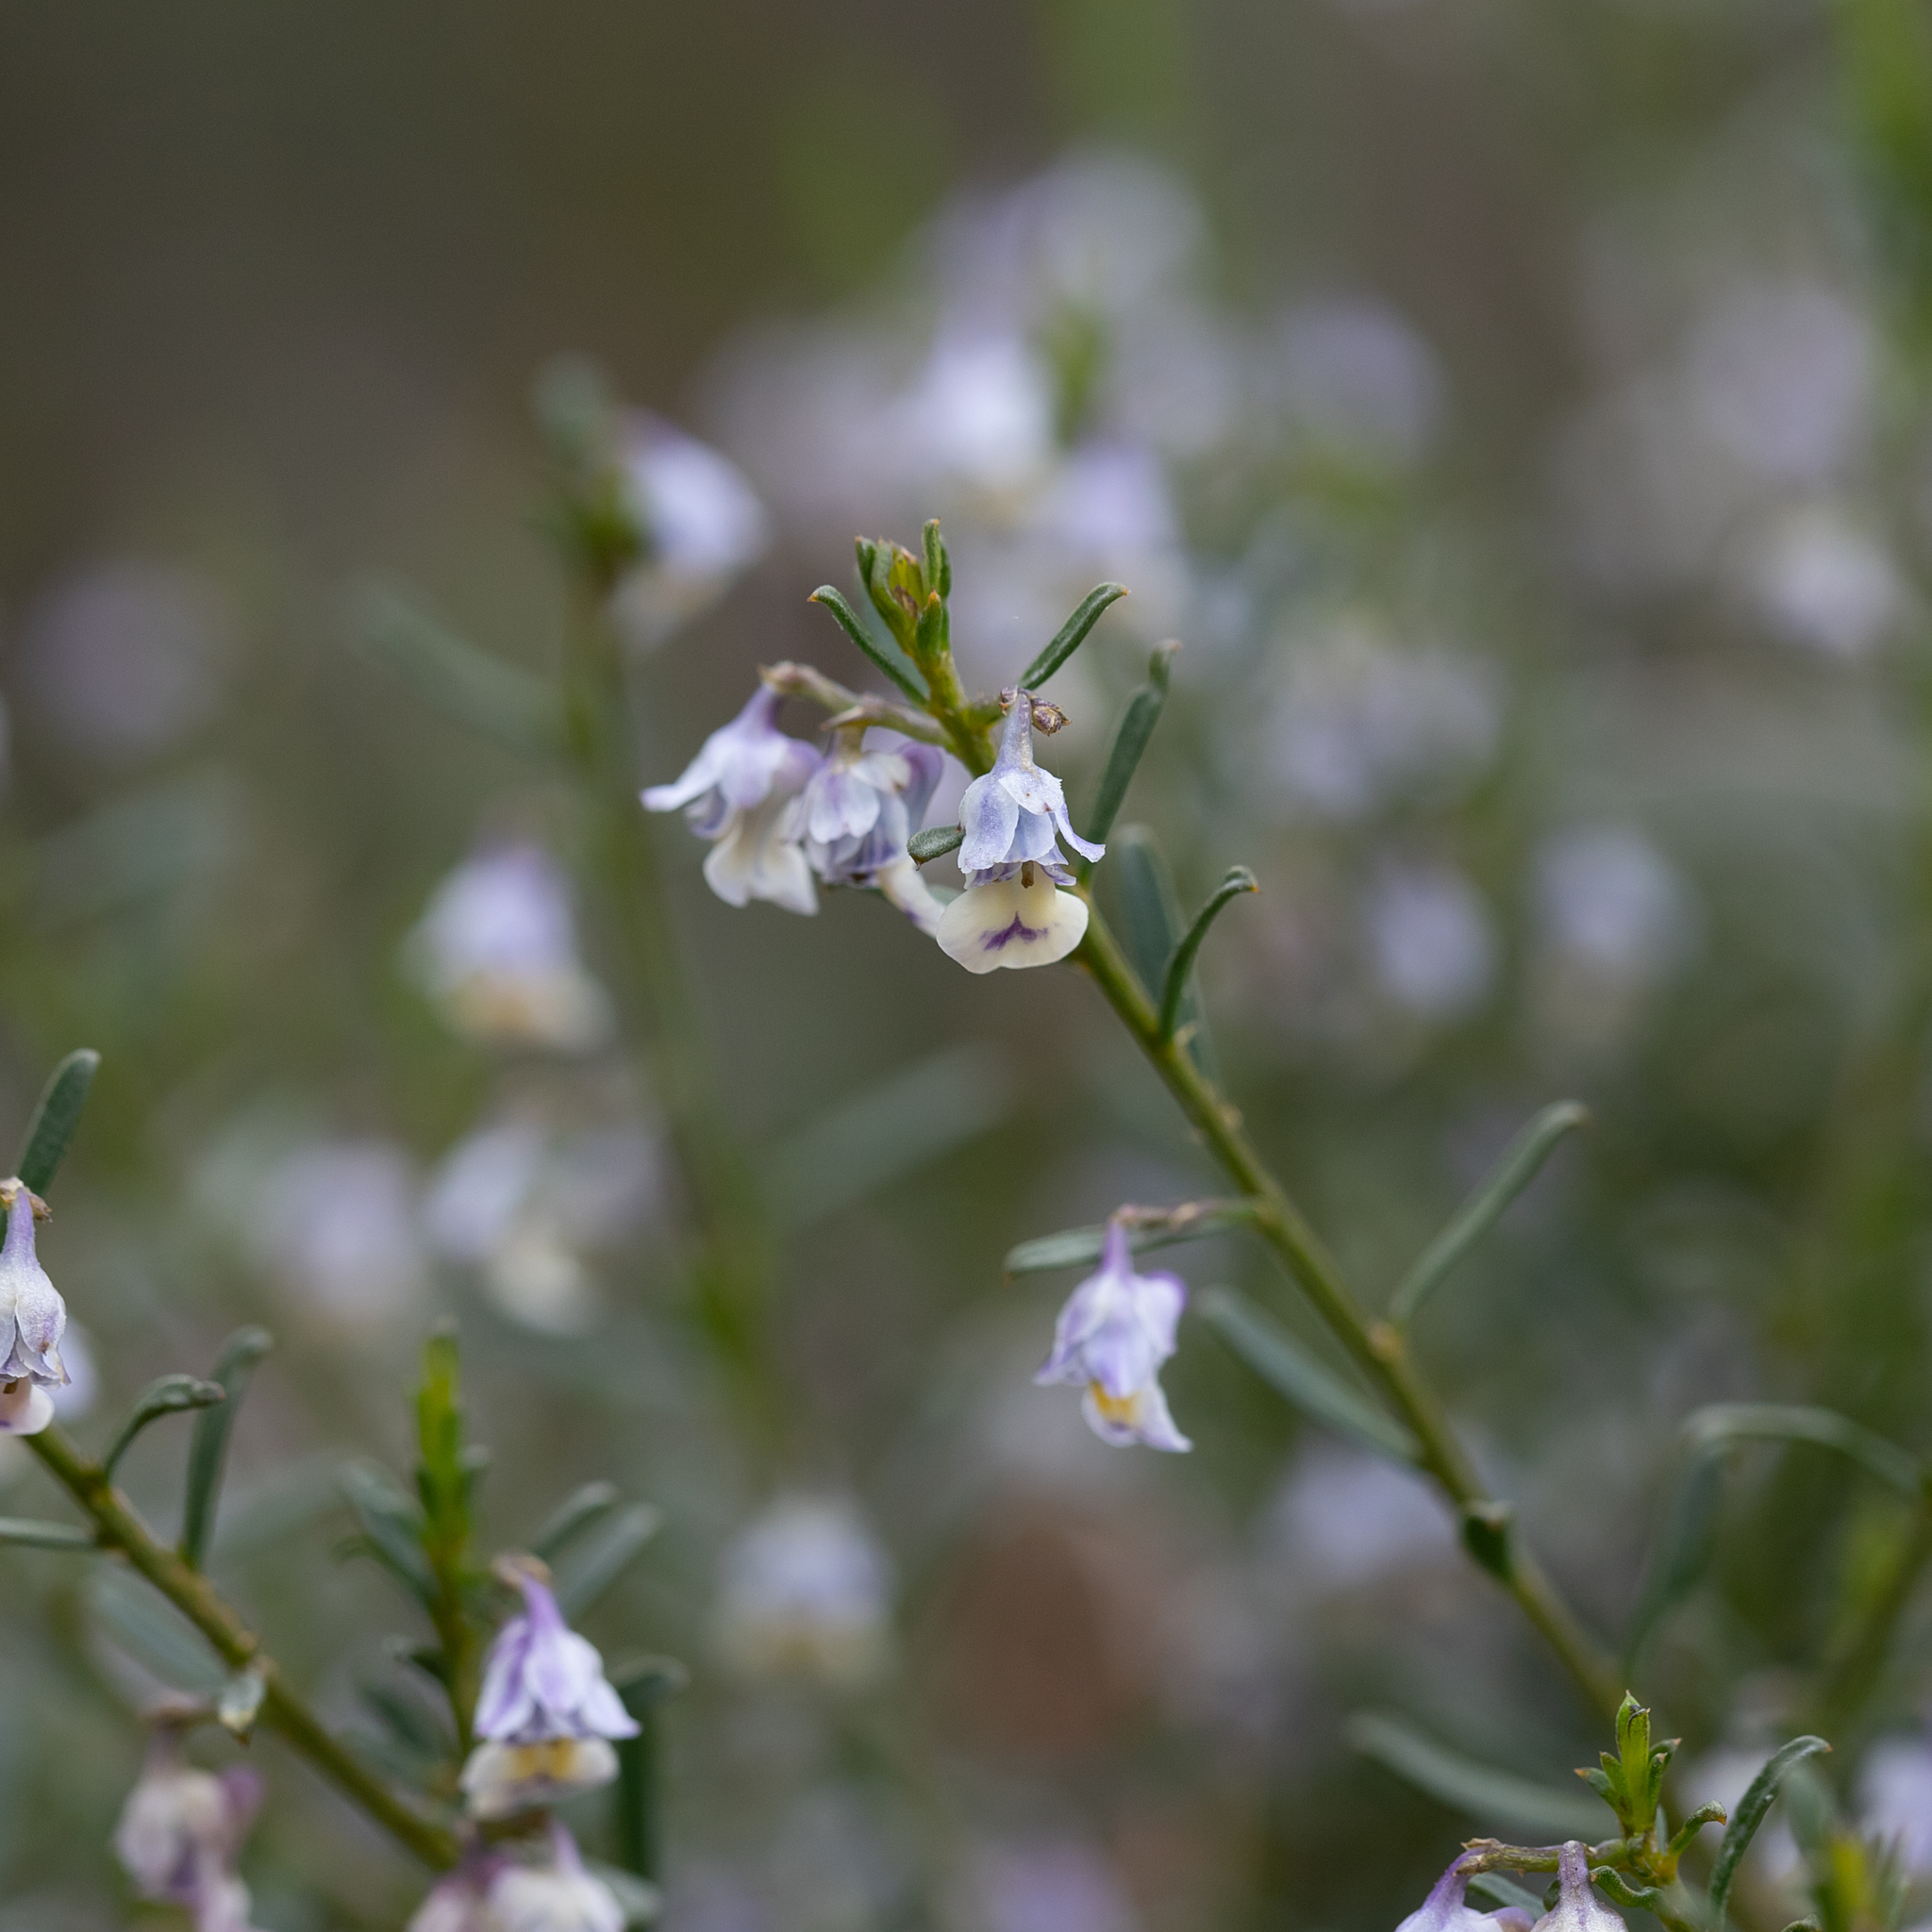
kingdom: Plantae
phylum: Tracheophyta
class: Magnoliopsida
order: Malpighiales
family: Violaceae
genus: Pigea
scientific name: Pigea floribunda
